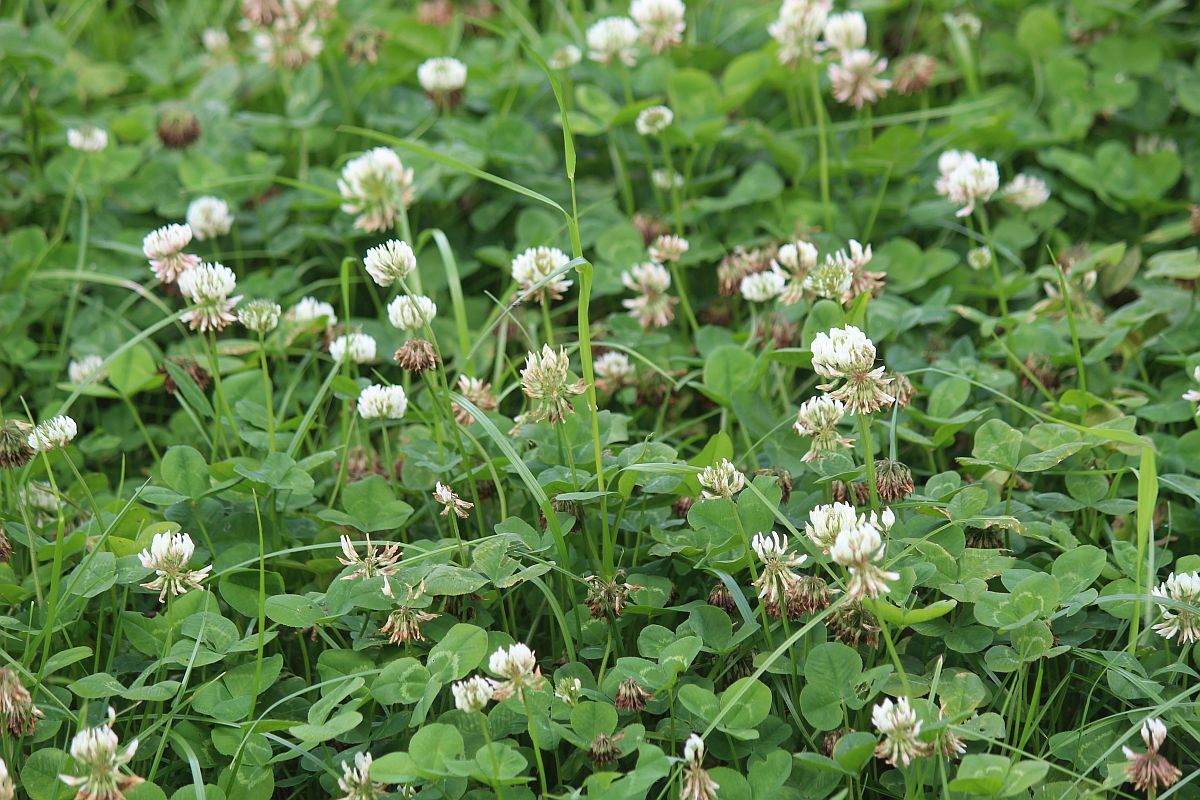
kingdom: Plantae
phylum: Tracheophyta
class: Magnoliopsida
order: Fabales
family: Fabaceae
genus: Trifolium
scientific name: Trifolium repens
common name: White clover
